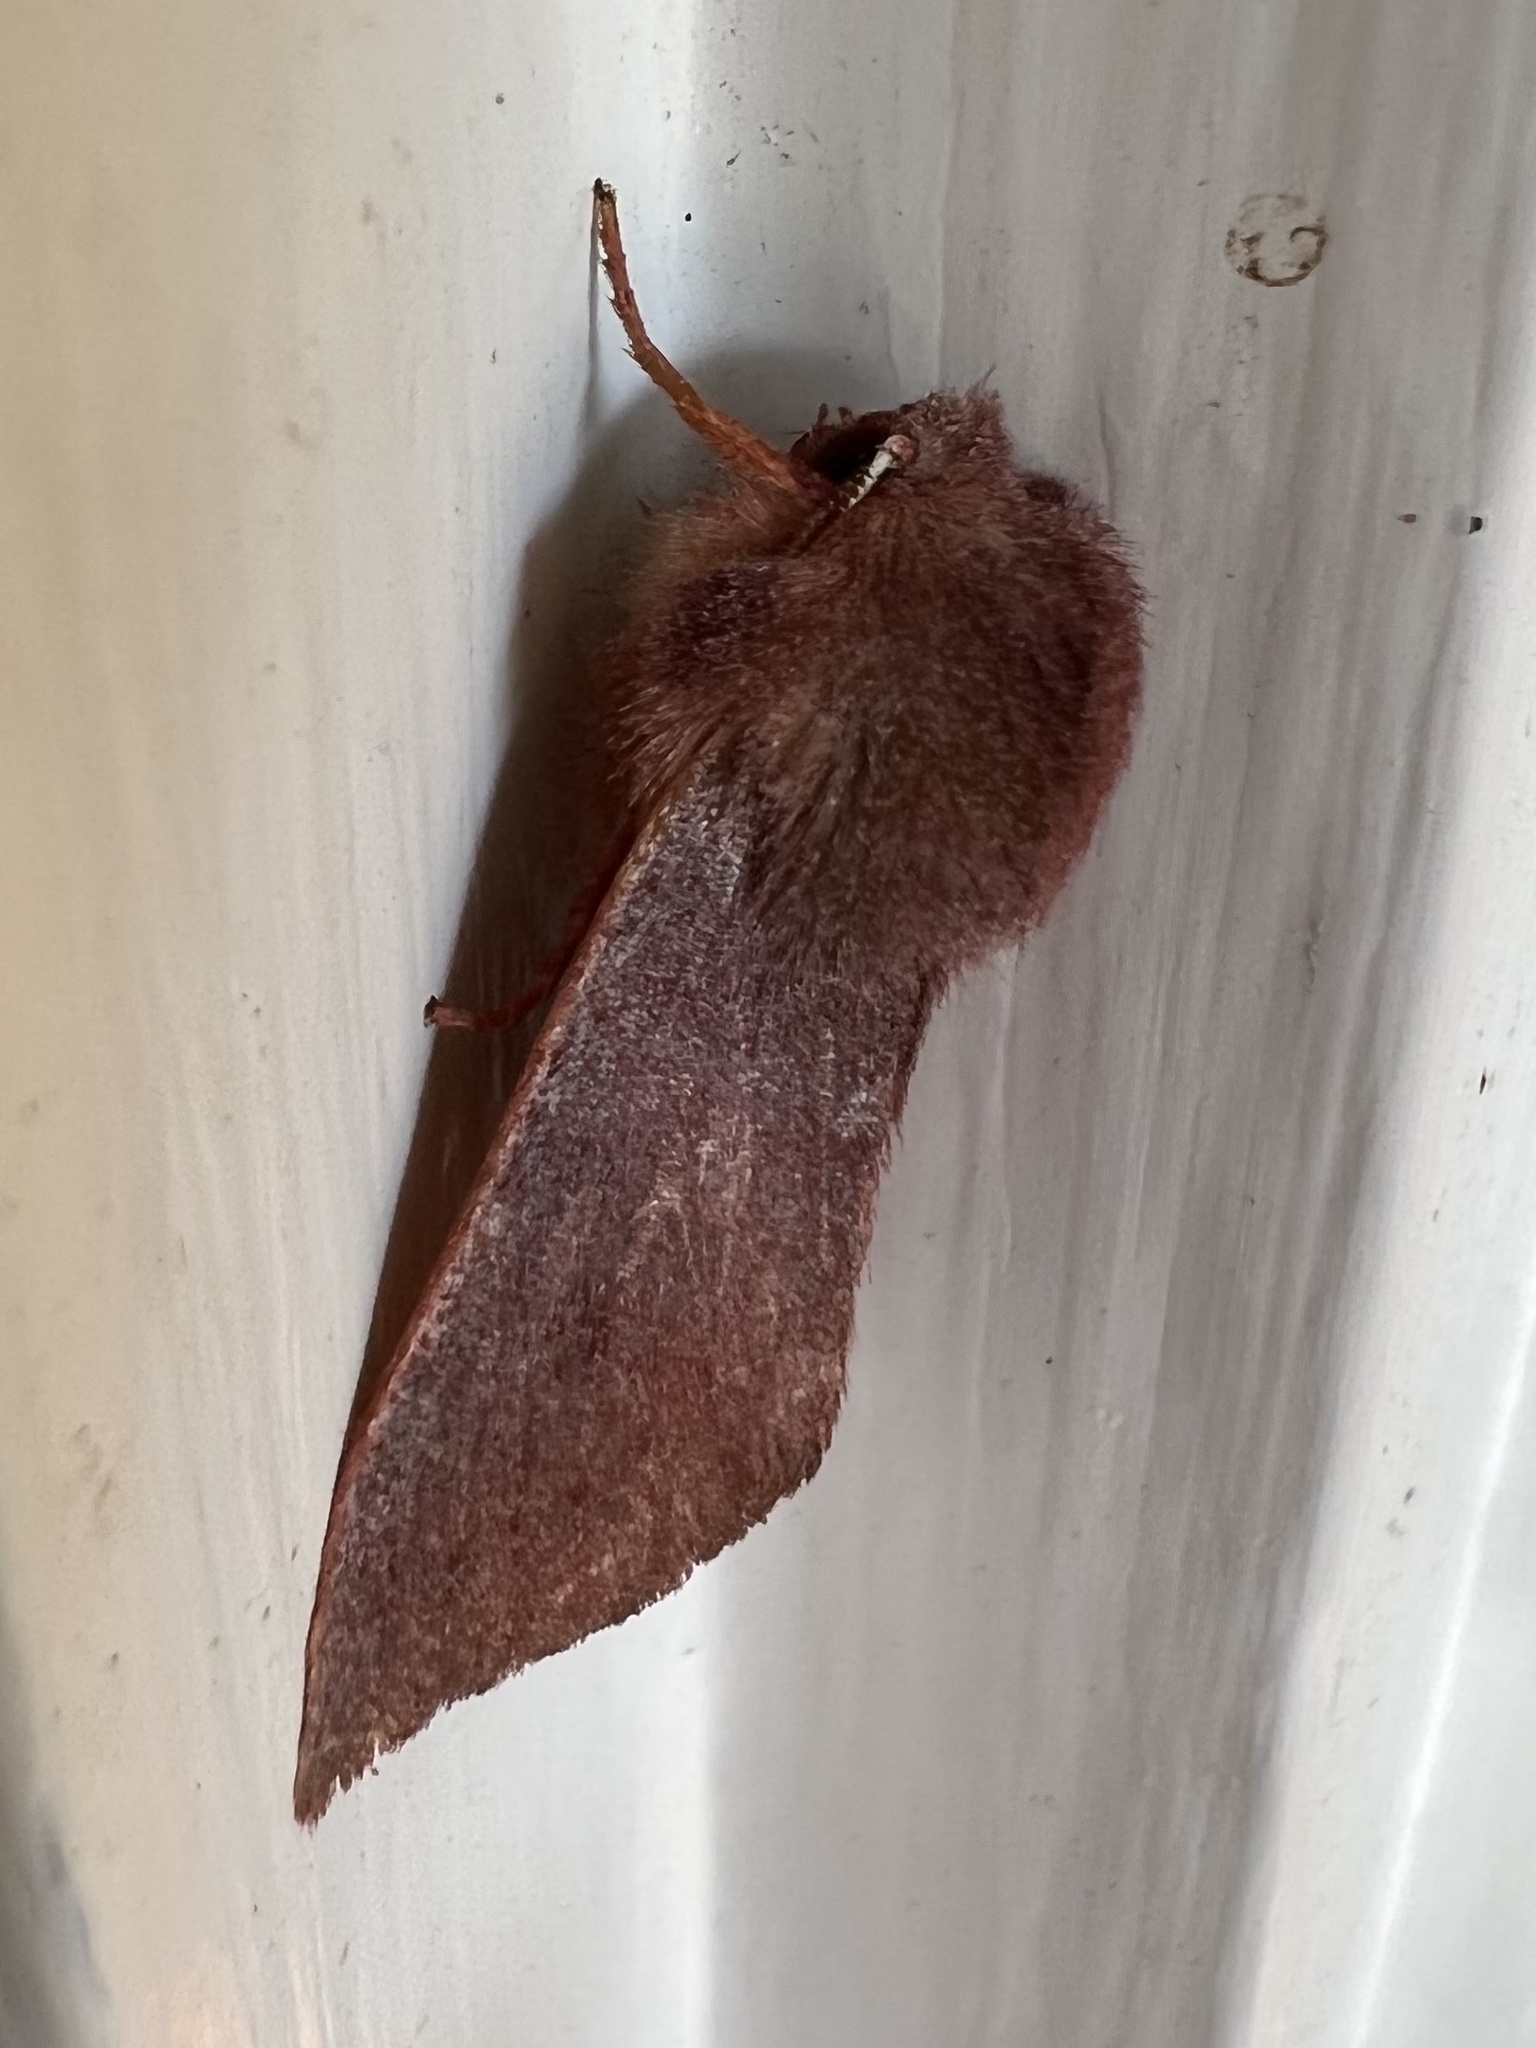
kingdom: Animalia
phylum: Arthropoda
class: Insecta
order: Lepidoptera
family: Noctuidae
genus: Orthosia
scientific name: Orthosia mys
